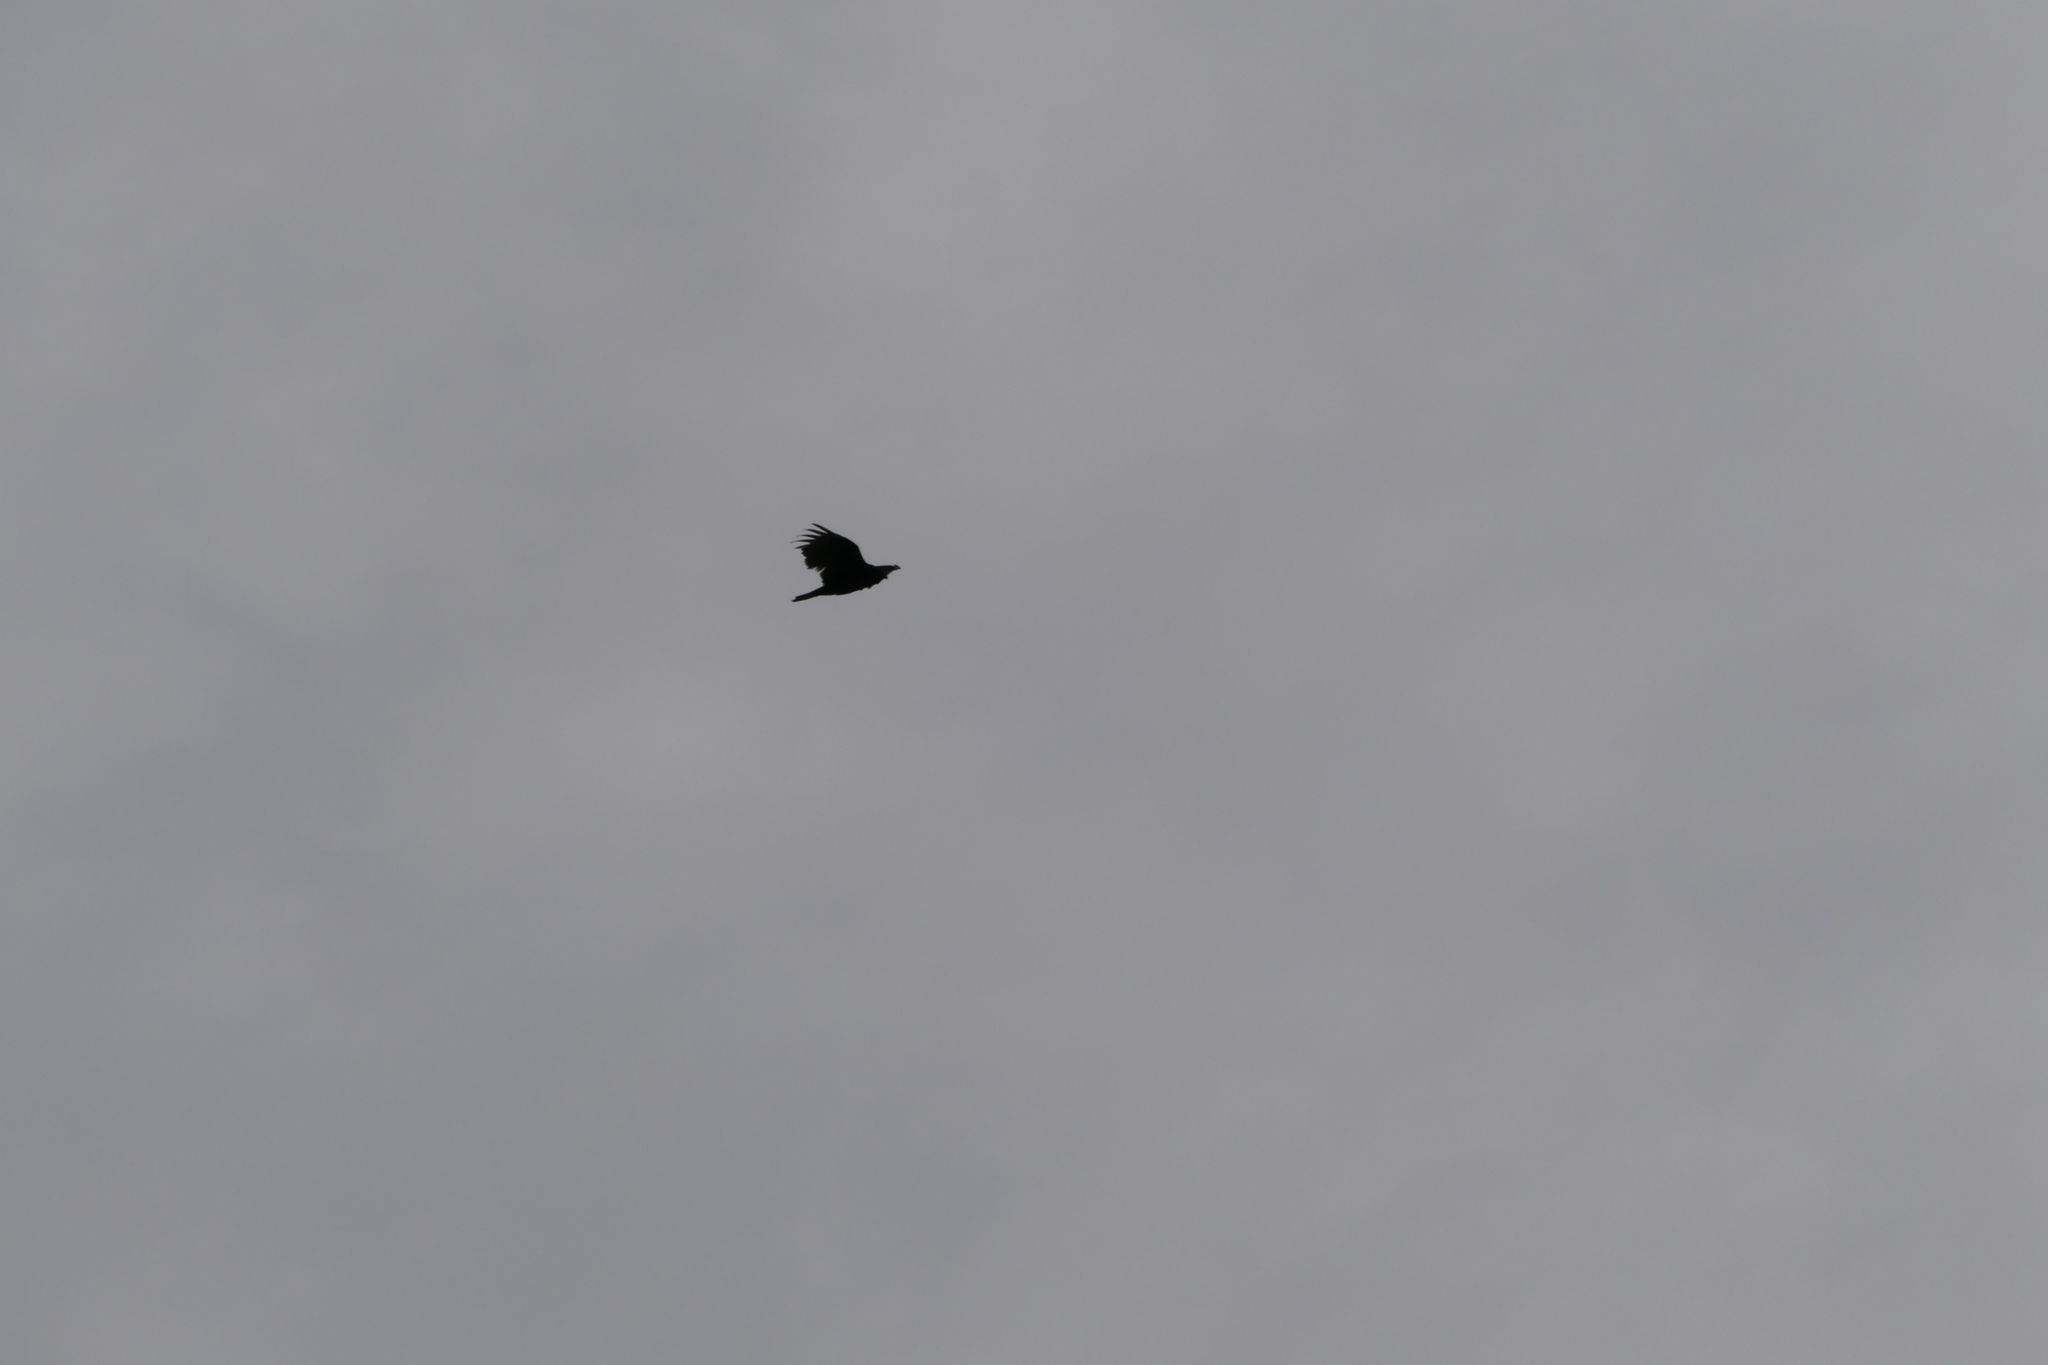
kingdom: Animalia
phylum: Chordata
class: Aves
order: Accipitriformes
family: Cathartidae
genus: Cathartes
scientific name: Cathartes aura
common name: Turkey vulture
